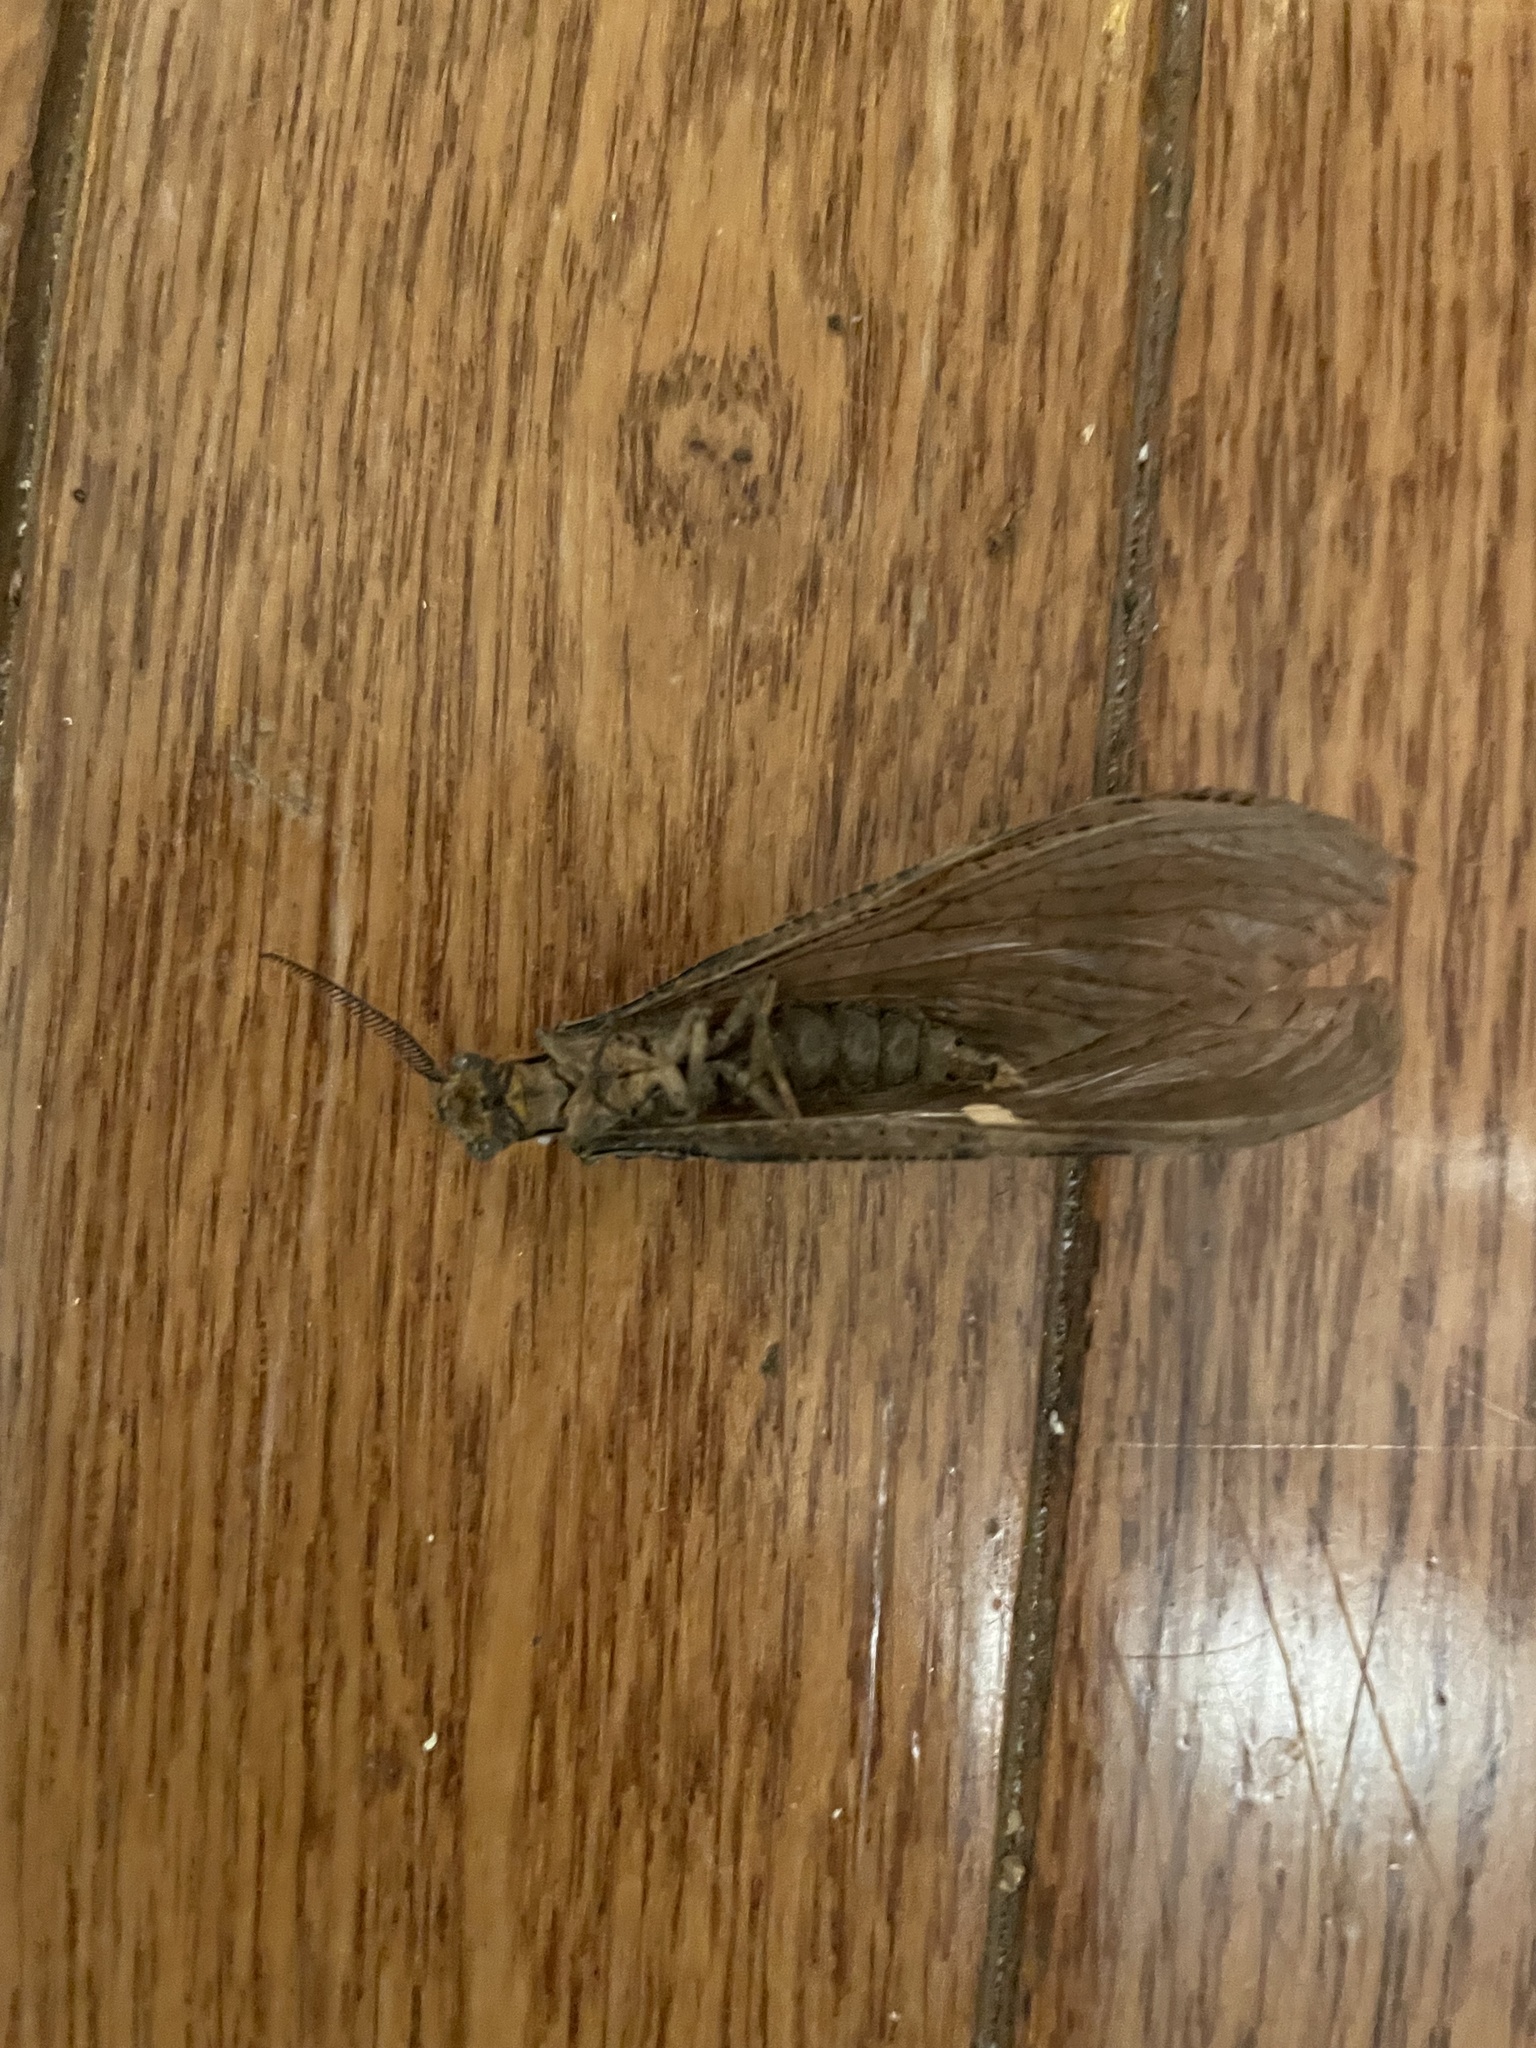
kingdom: Animalia
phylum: Arthropoda
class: Insecta
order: Megaloptera
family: Corydalidae
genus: Chauliodes
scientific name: Chauliodes pectinicornis
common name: Summer fishfly
